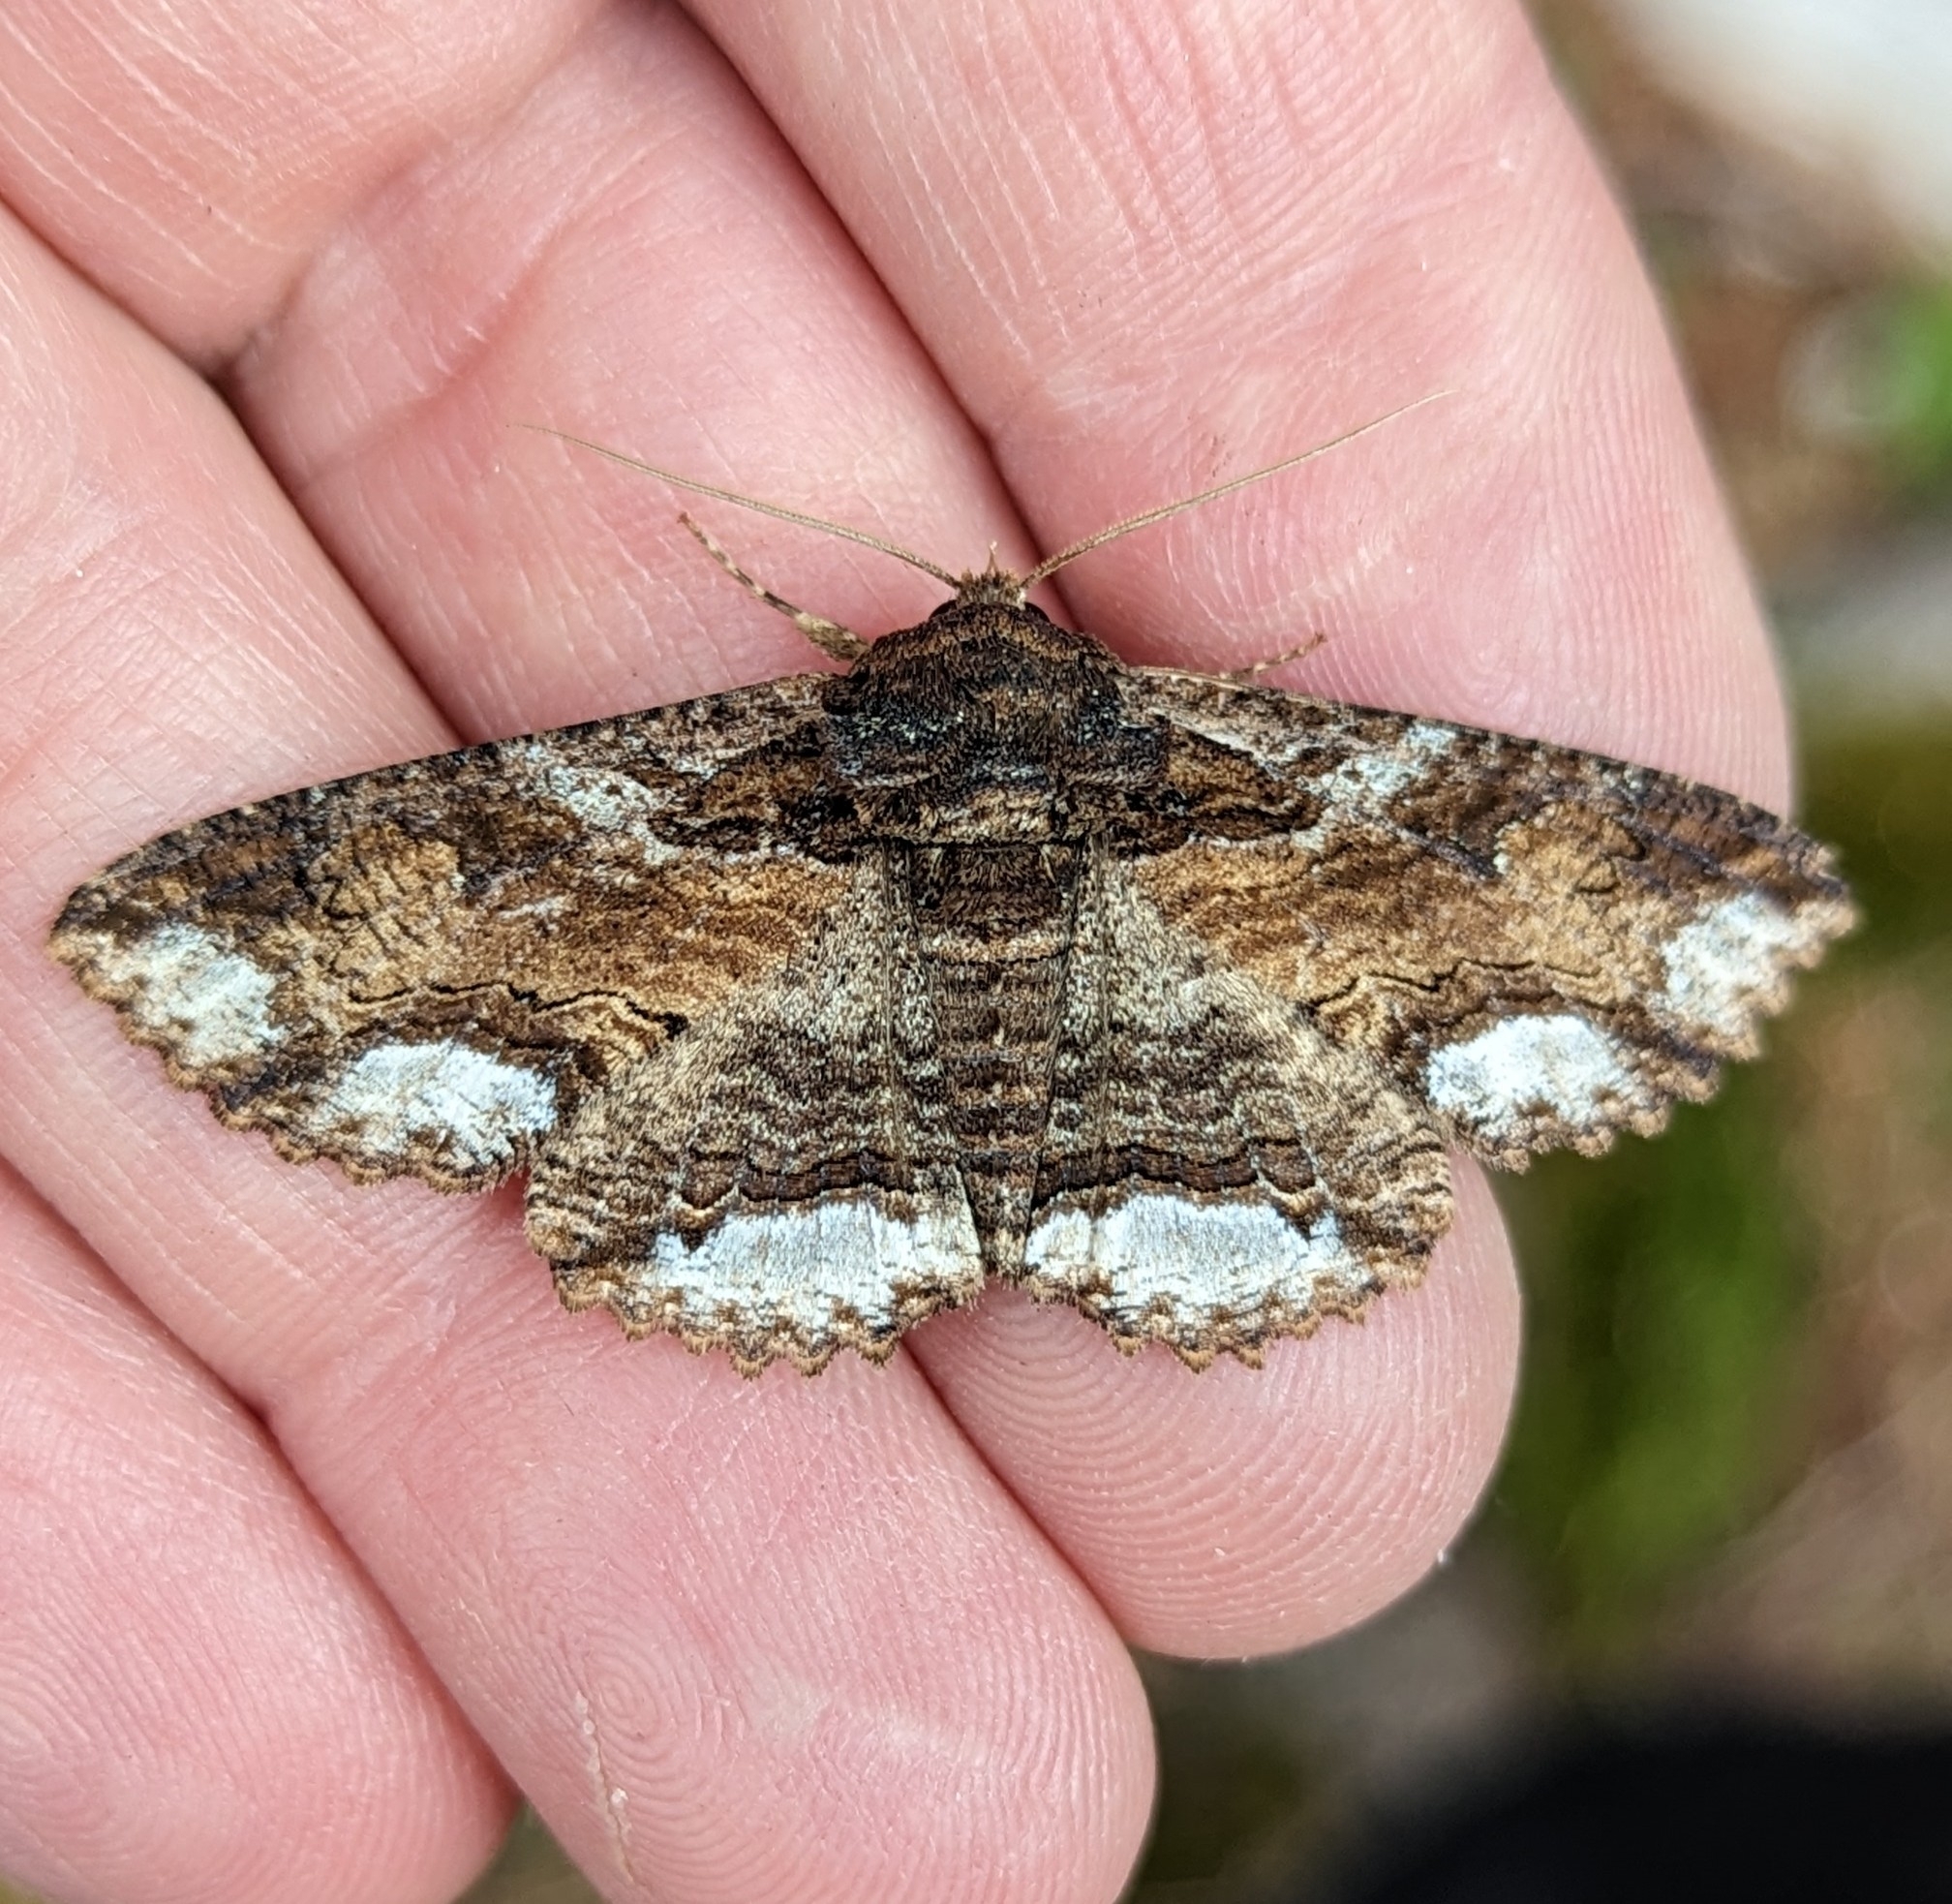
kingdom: Animalia
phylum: Arthropoda
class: Insecta
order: Lepidoptera
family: Erebidae
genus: Zale
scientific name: Zale lunata
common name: Lunate zale moth
